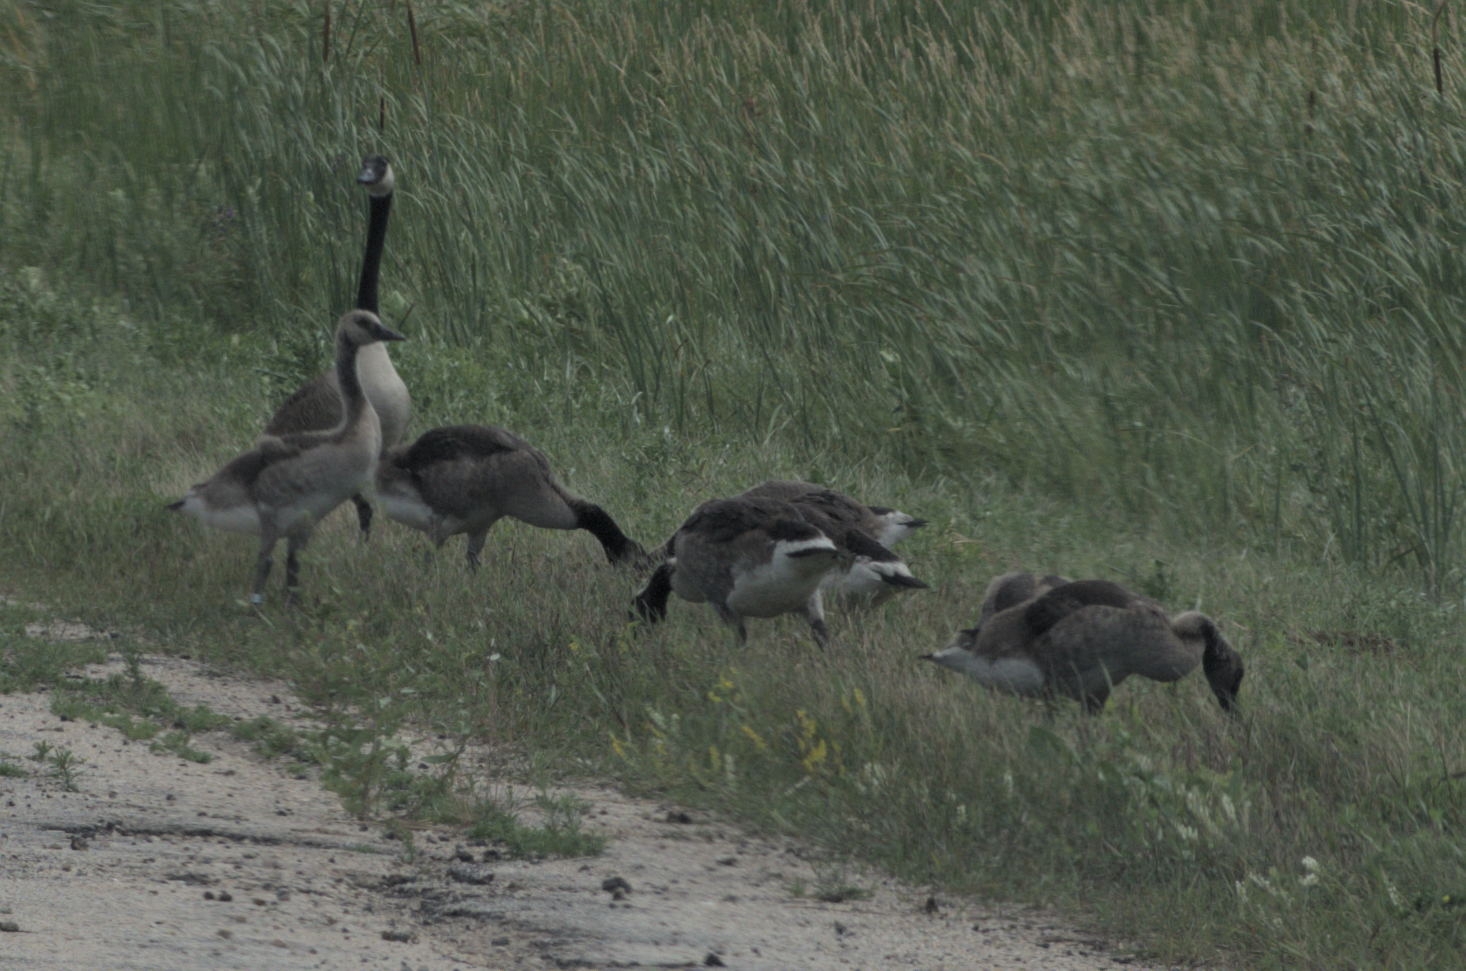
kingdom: Animalia
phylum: Chordata
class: Aves
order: Anseriformes
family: Anatidae
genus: Branta
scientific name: Branta canadensis
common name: Canada goose
